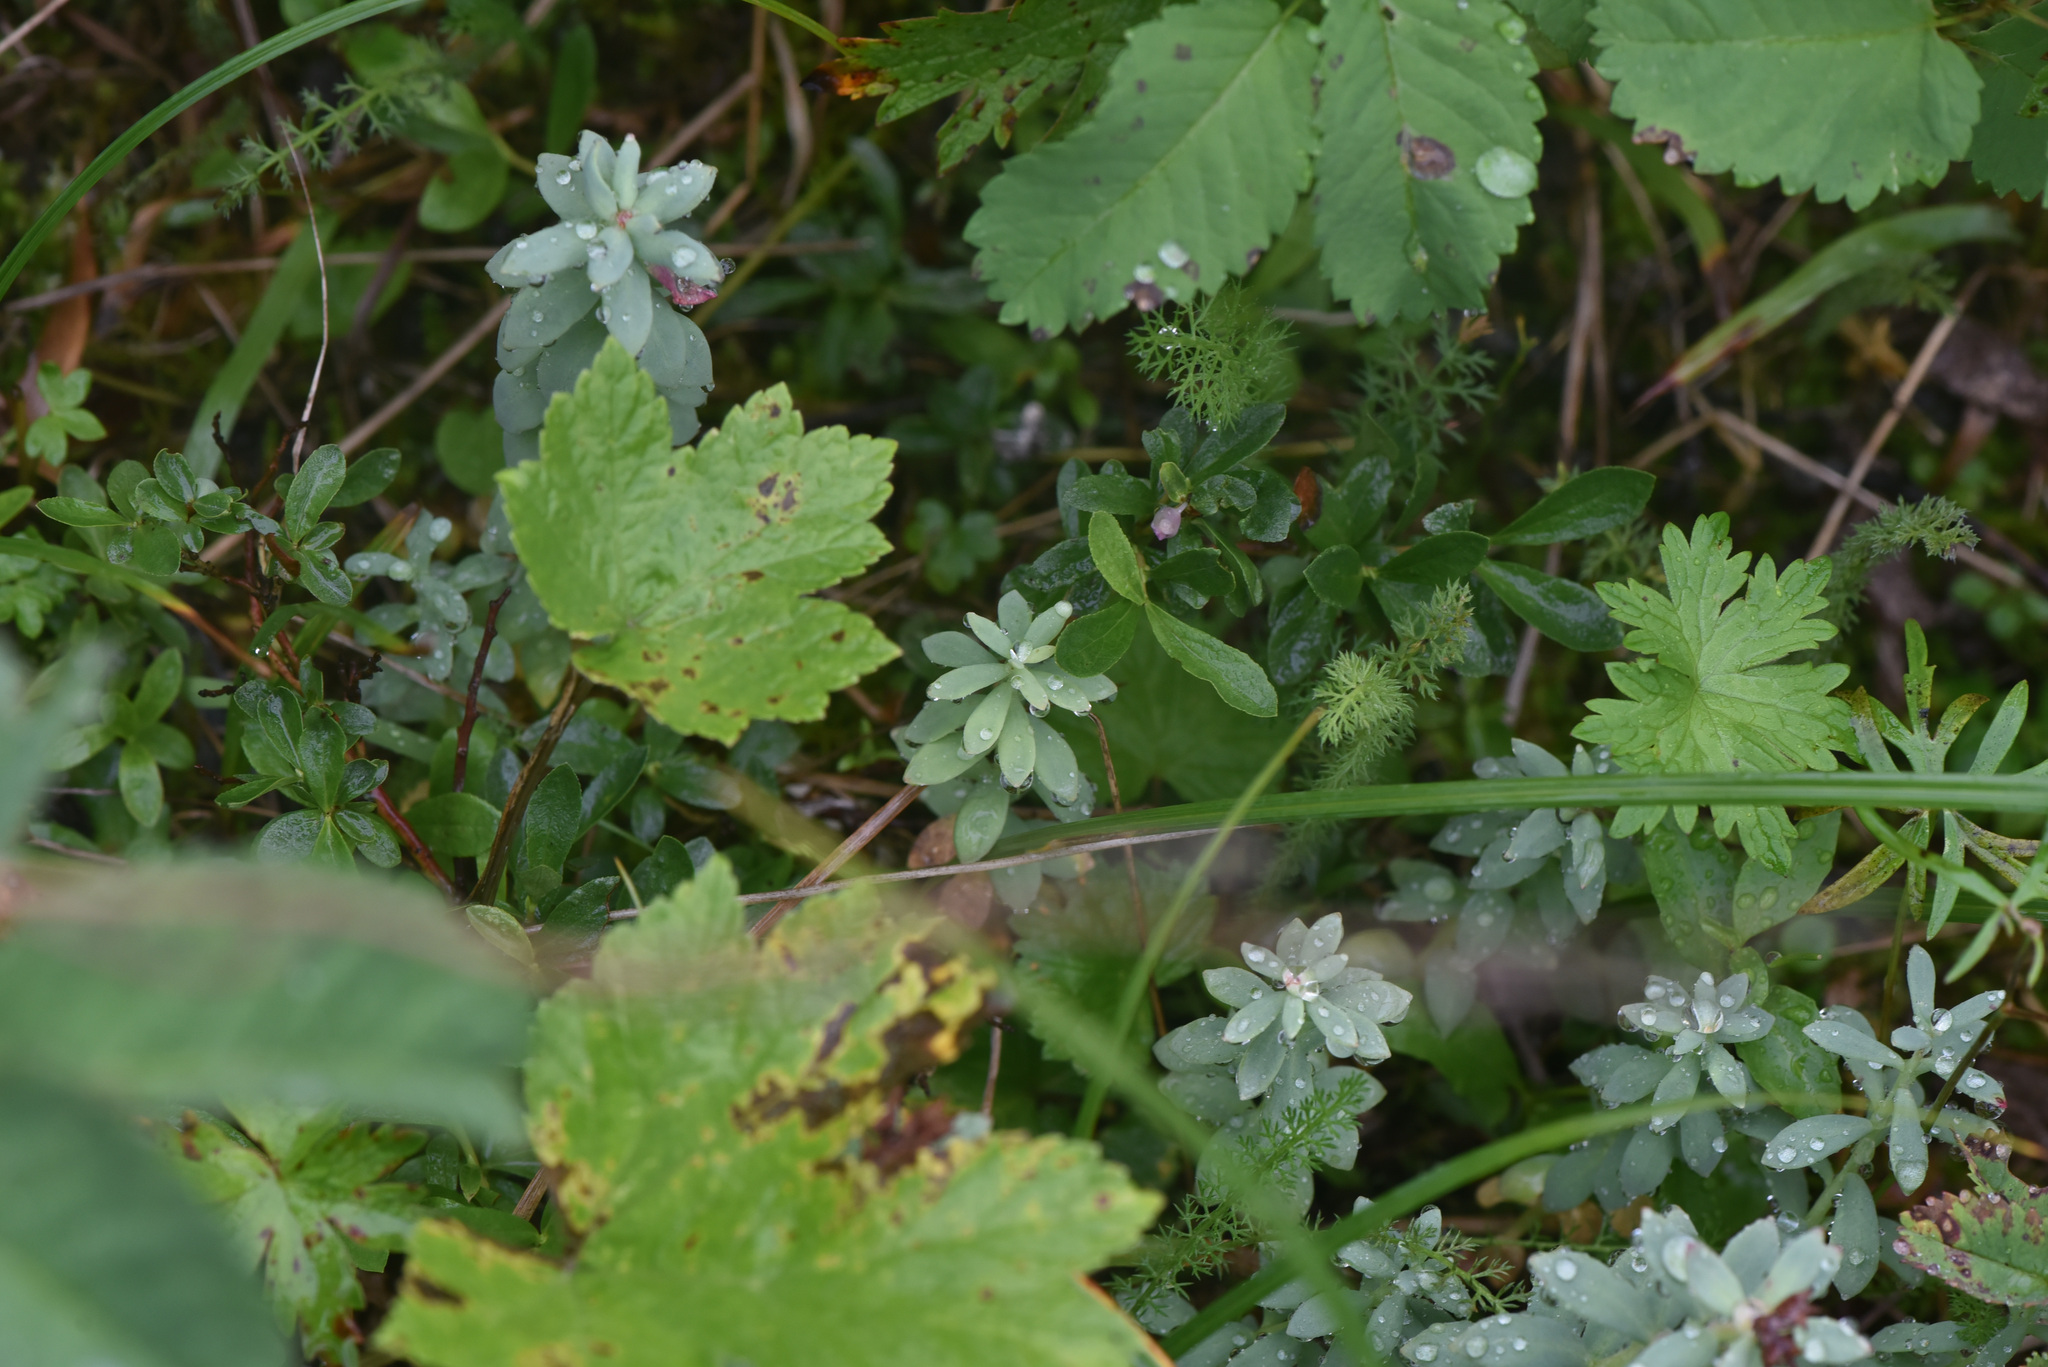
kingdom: Plantae
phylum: Tracheophyta
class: Magnoliopsida
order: Saxifragales
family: Crassulaceae
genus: Rhodiola
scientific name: Rhodiola integrifolia
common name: Western roseroot
